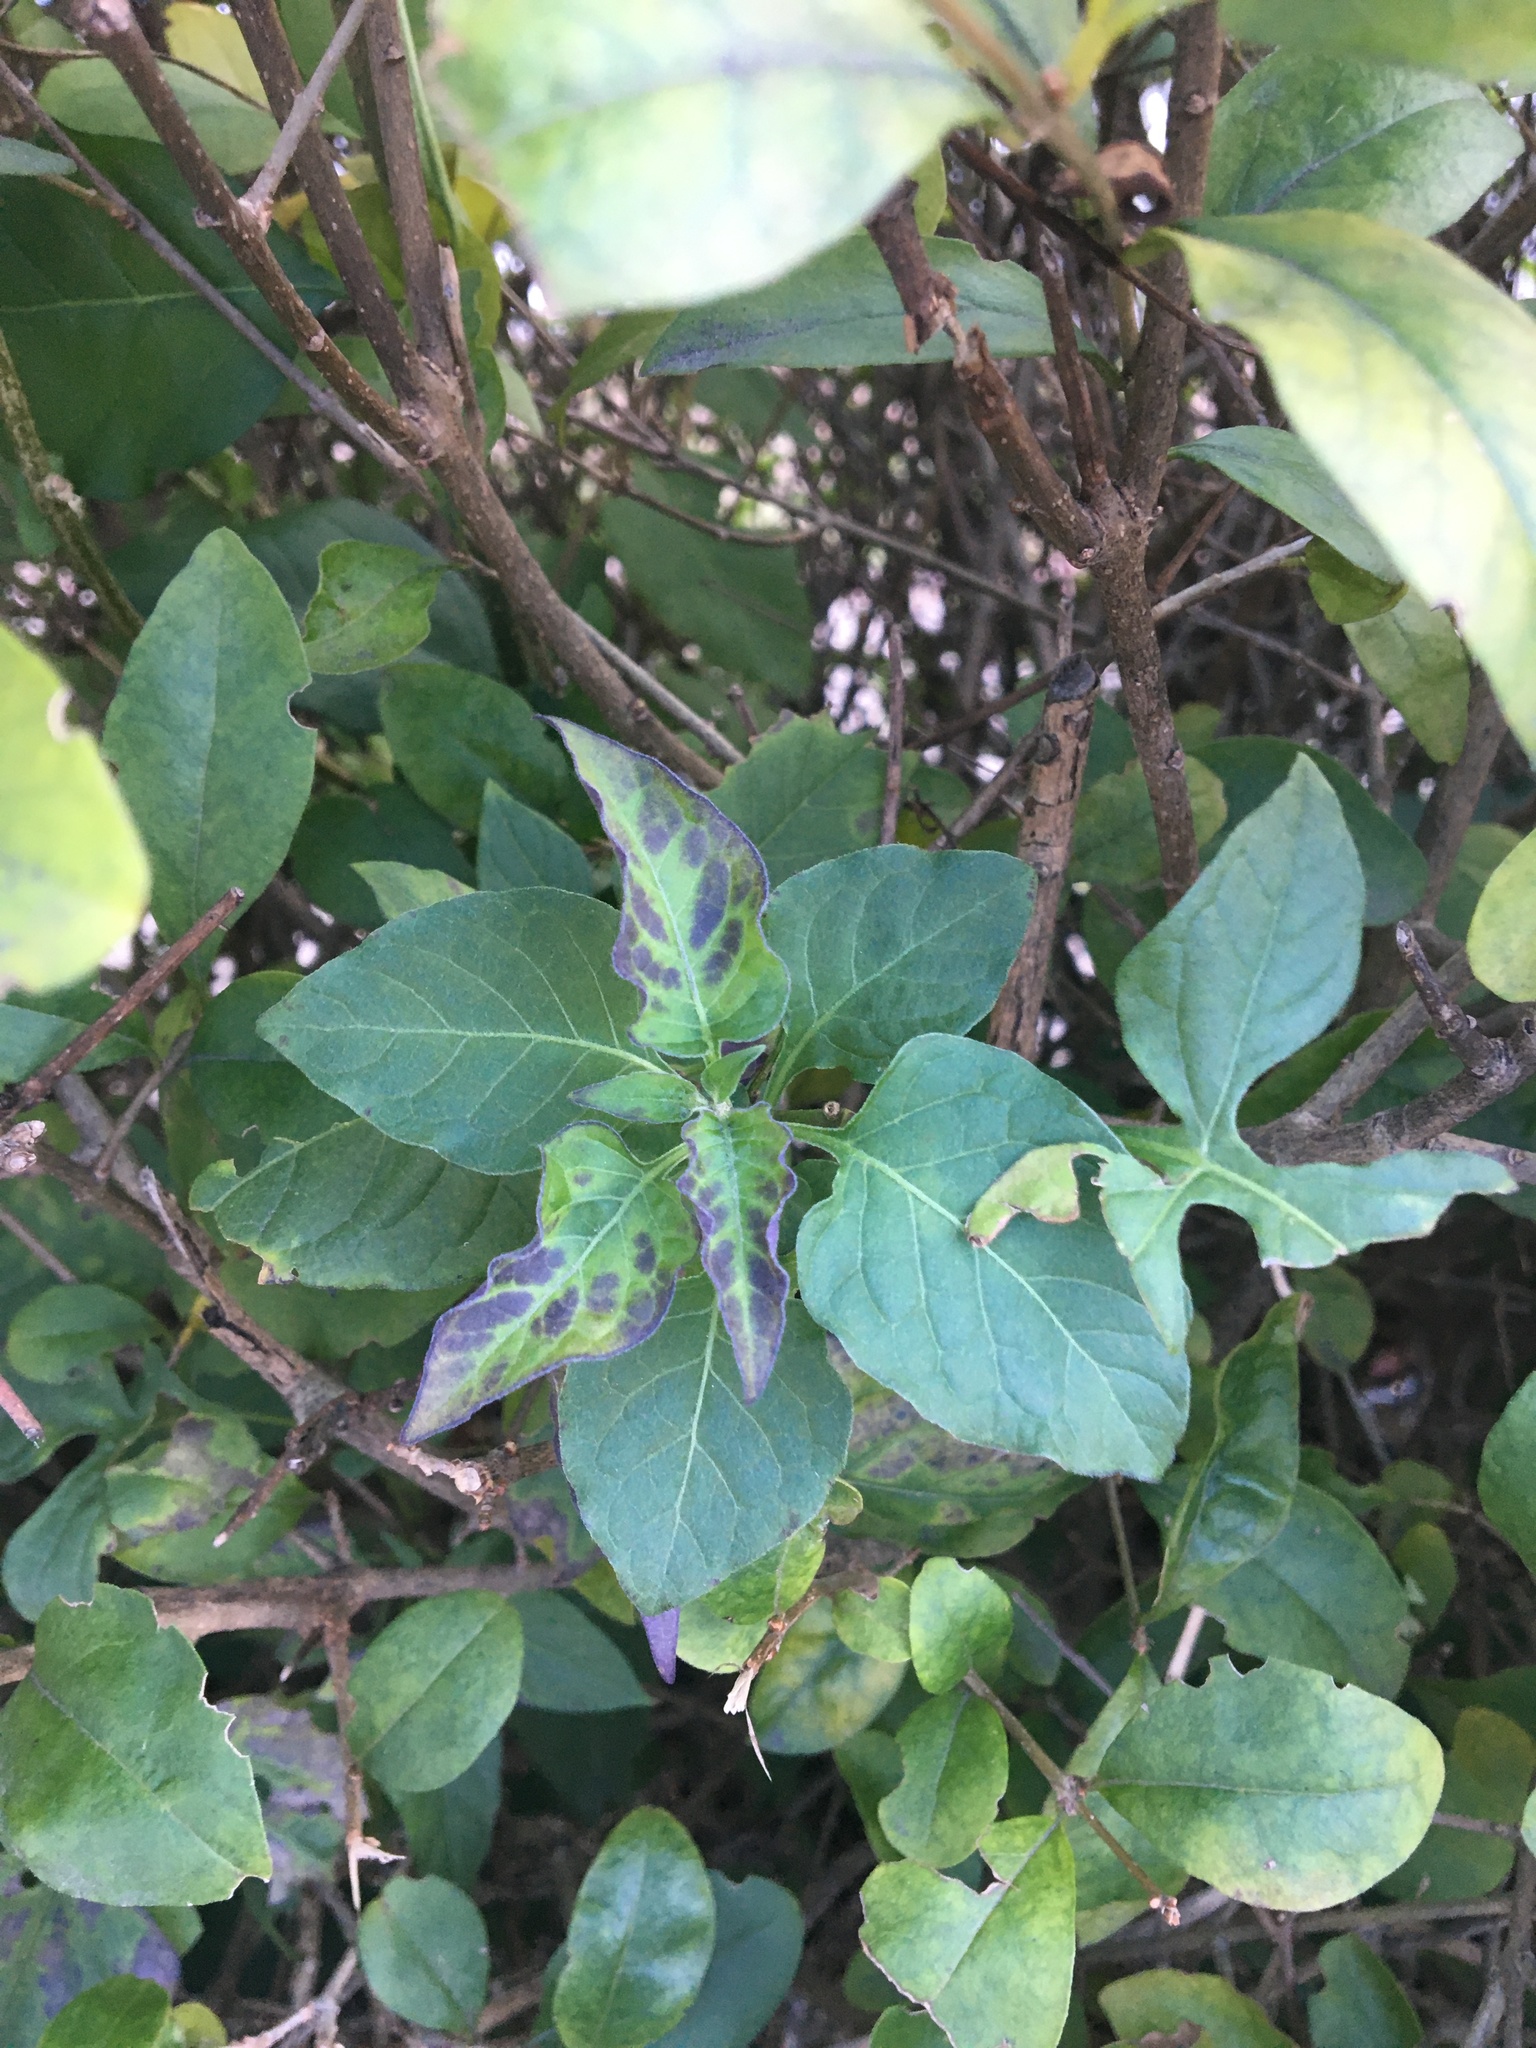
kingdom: Plantae
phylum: Tracheophyta
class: Magnoliopsida
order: Solanales
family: Solanaceae
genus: Solanum
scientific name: Solanum dulcamara
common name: Climbing nightshade
